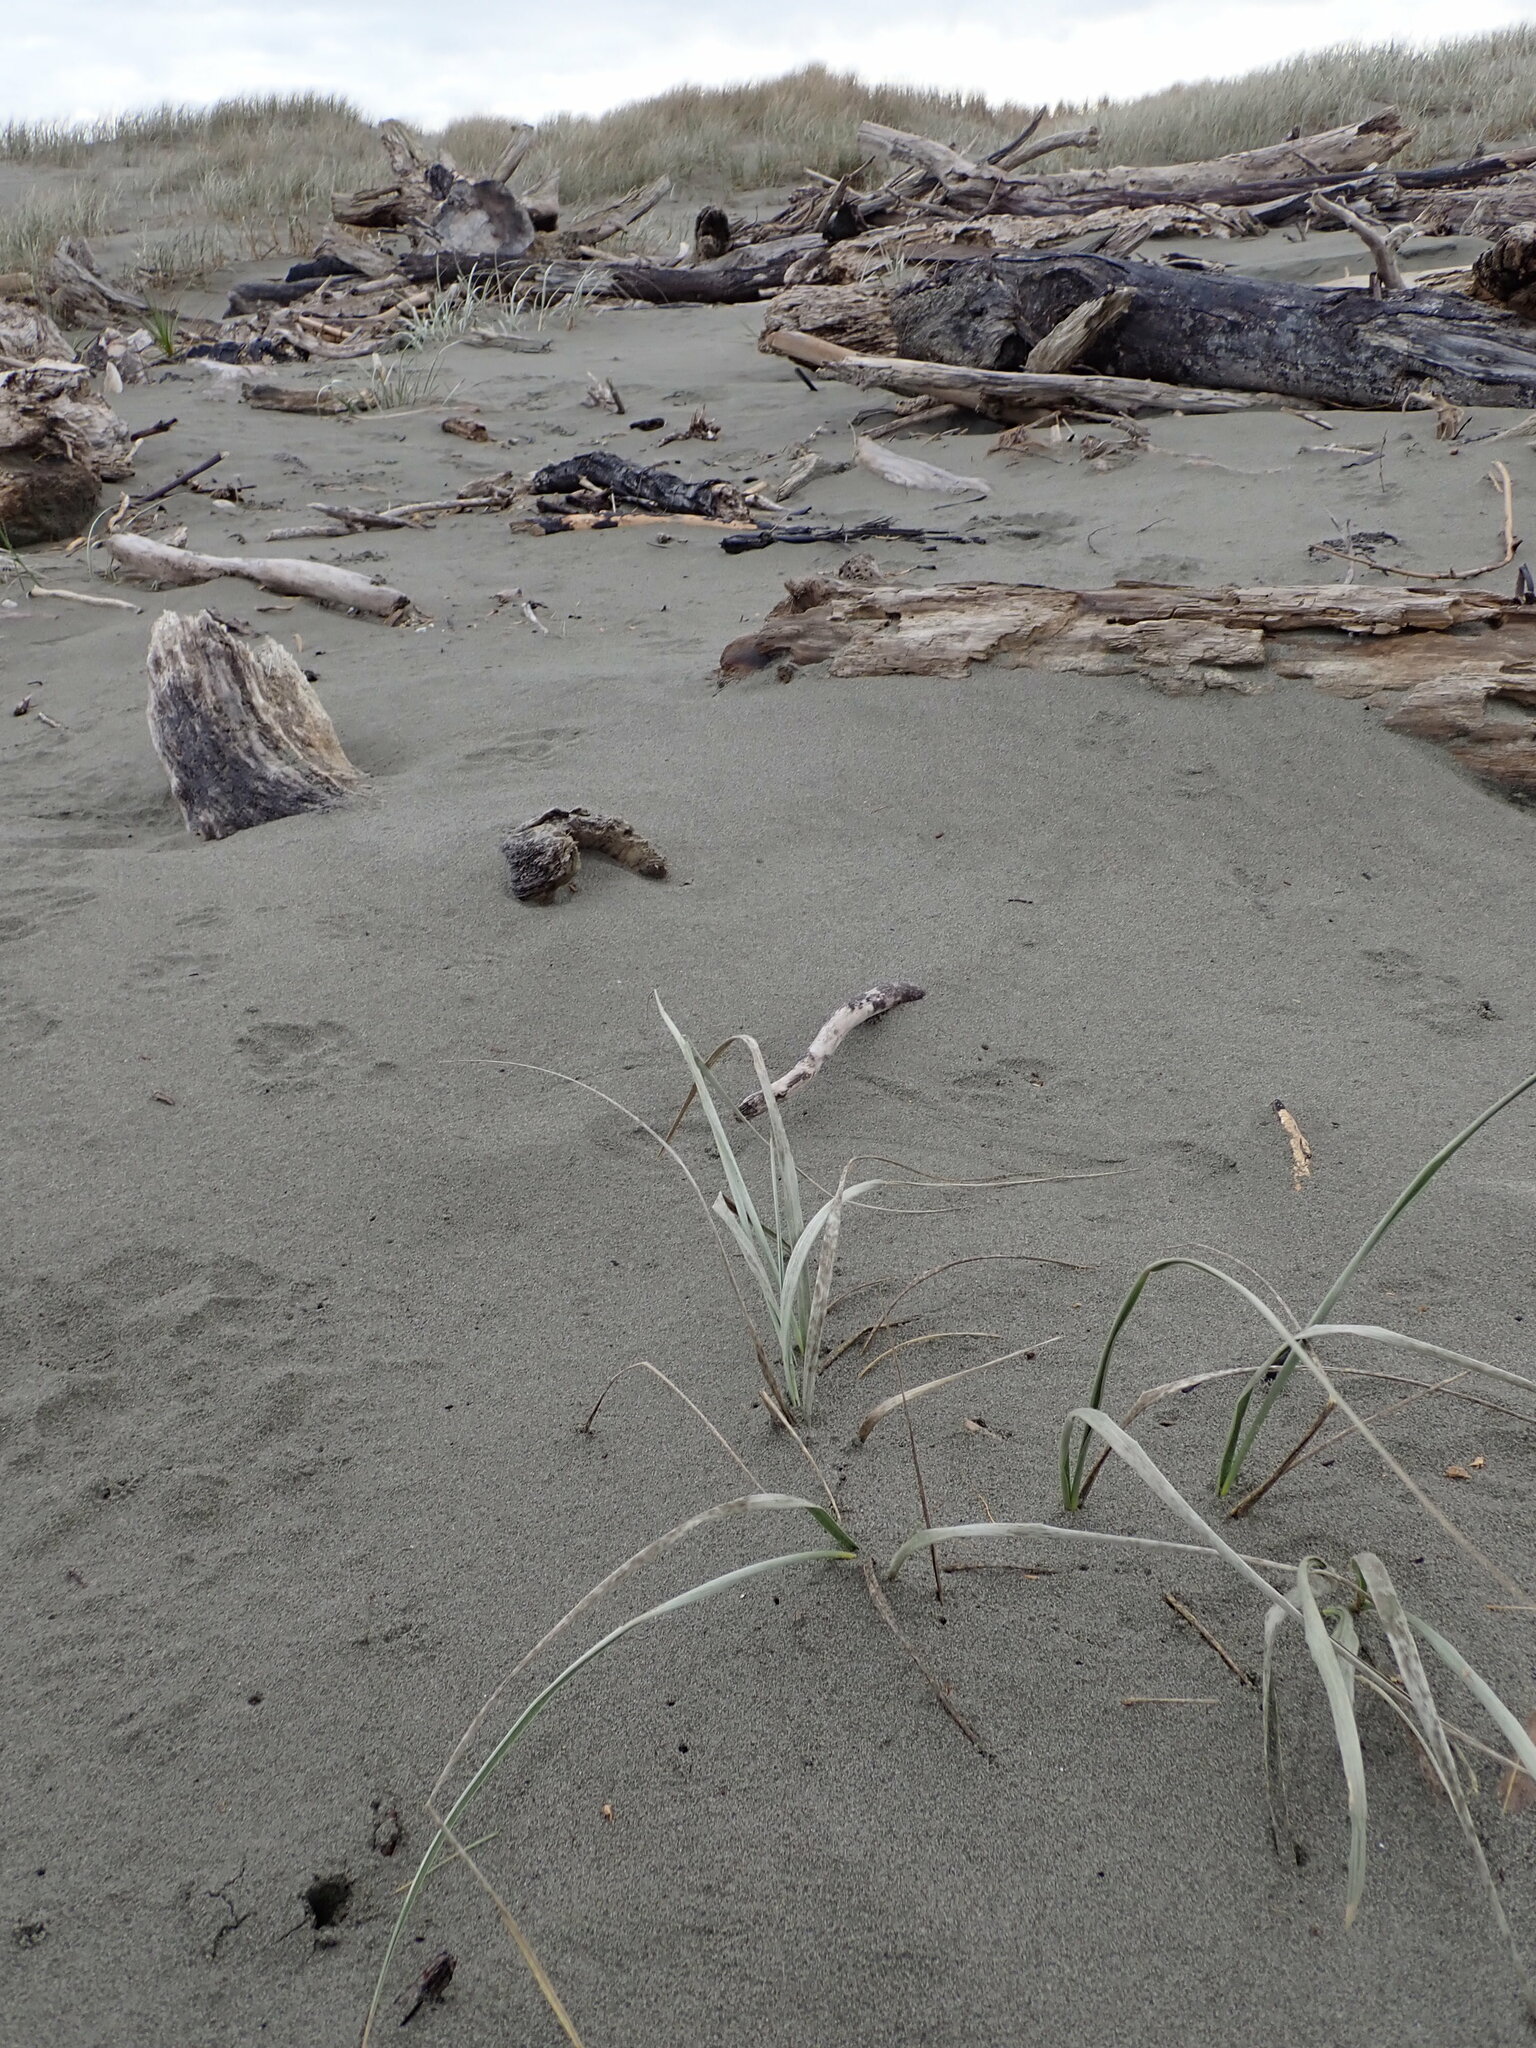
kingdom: Plantae
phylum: Tracheophyta
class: Liliopsida
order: Poales
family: Poaceae
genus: Spinifex
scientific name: Spinifex sericeus
